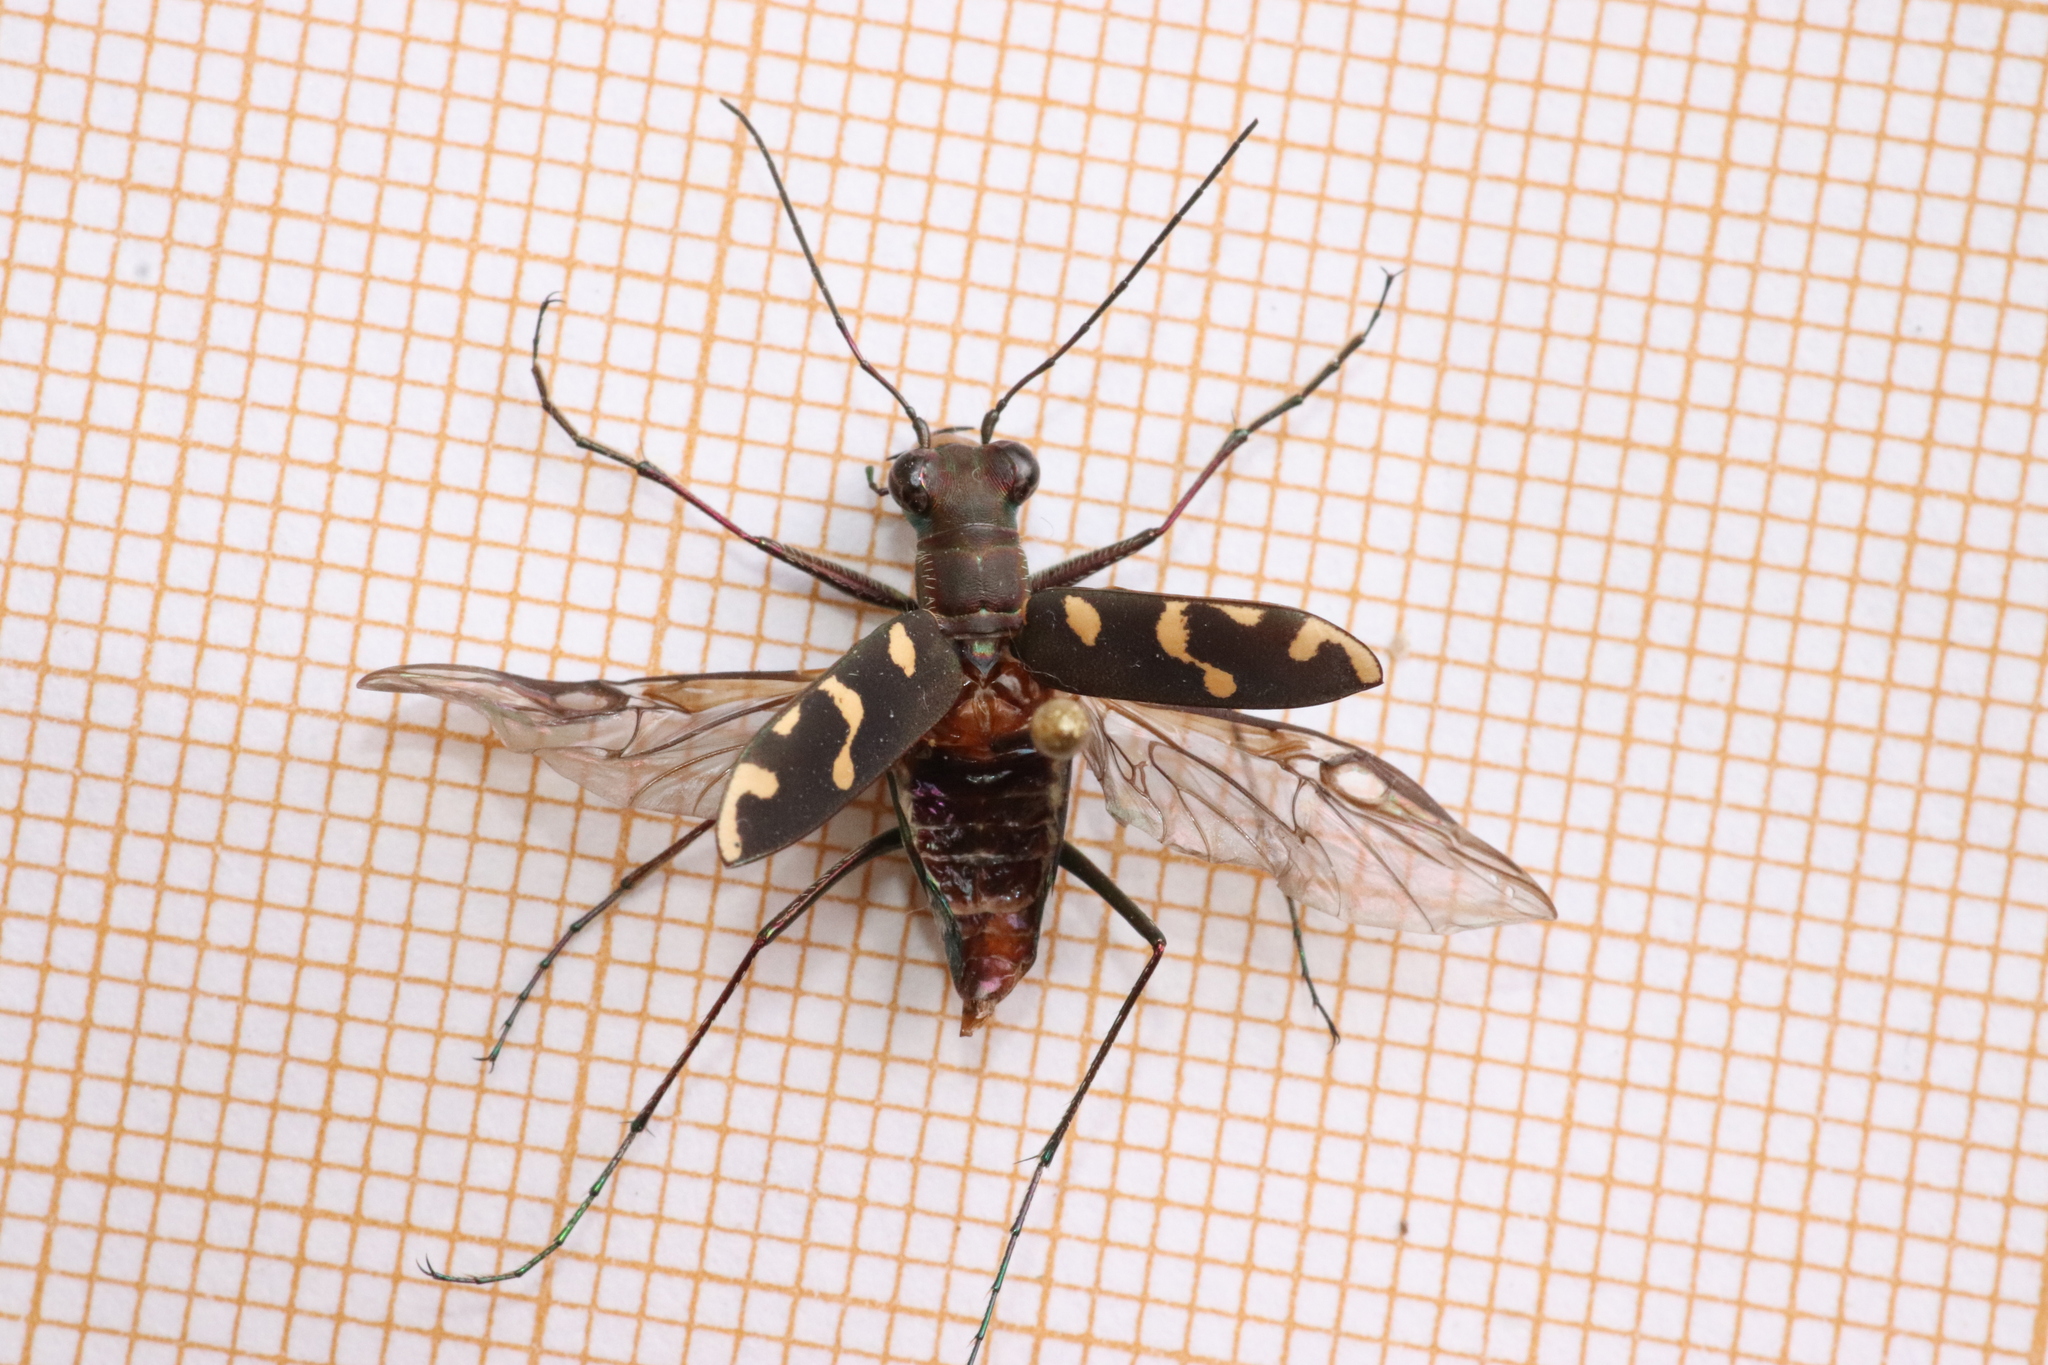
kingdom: Animalia
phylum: Arthropoda
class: Insecta
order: Coleoptera
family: Carabidae
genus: Cicindela
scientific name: Cicindela decemguttata
